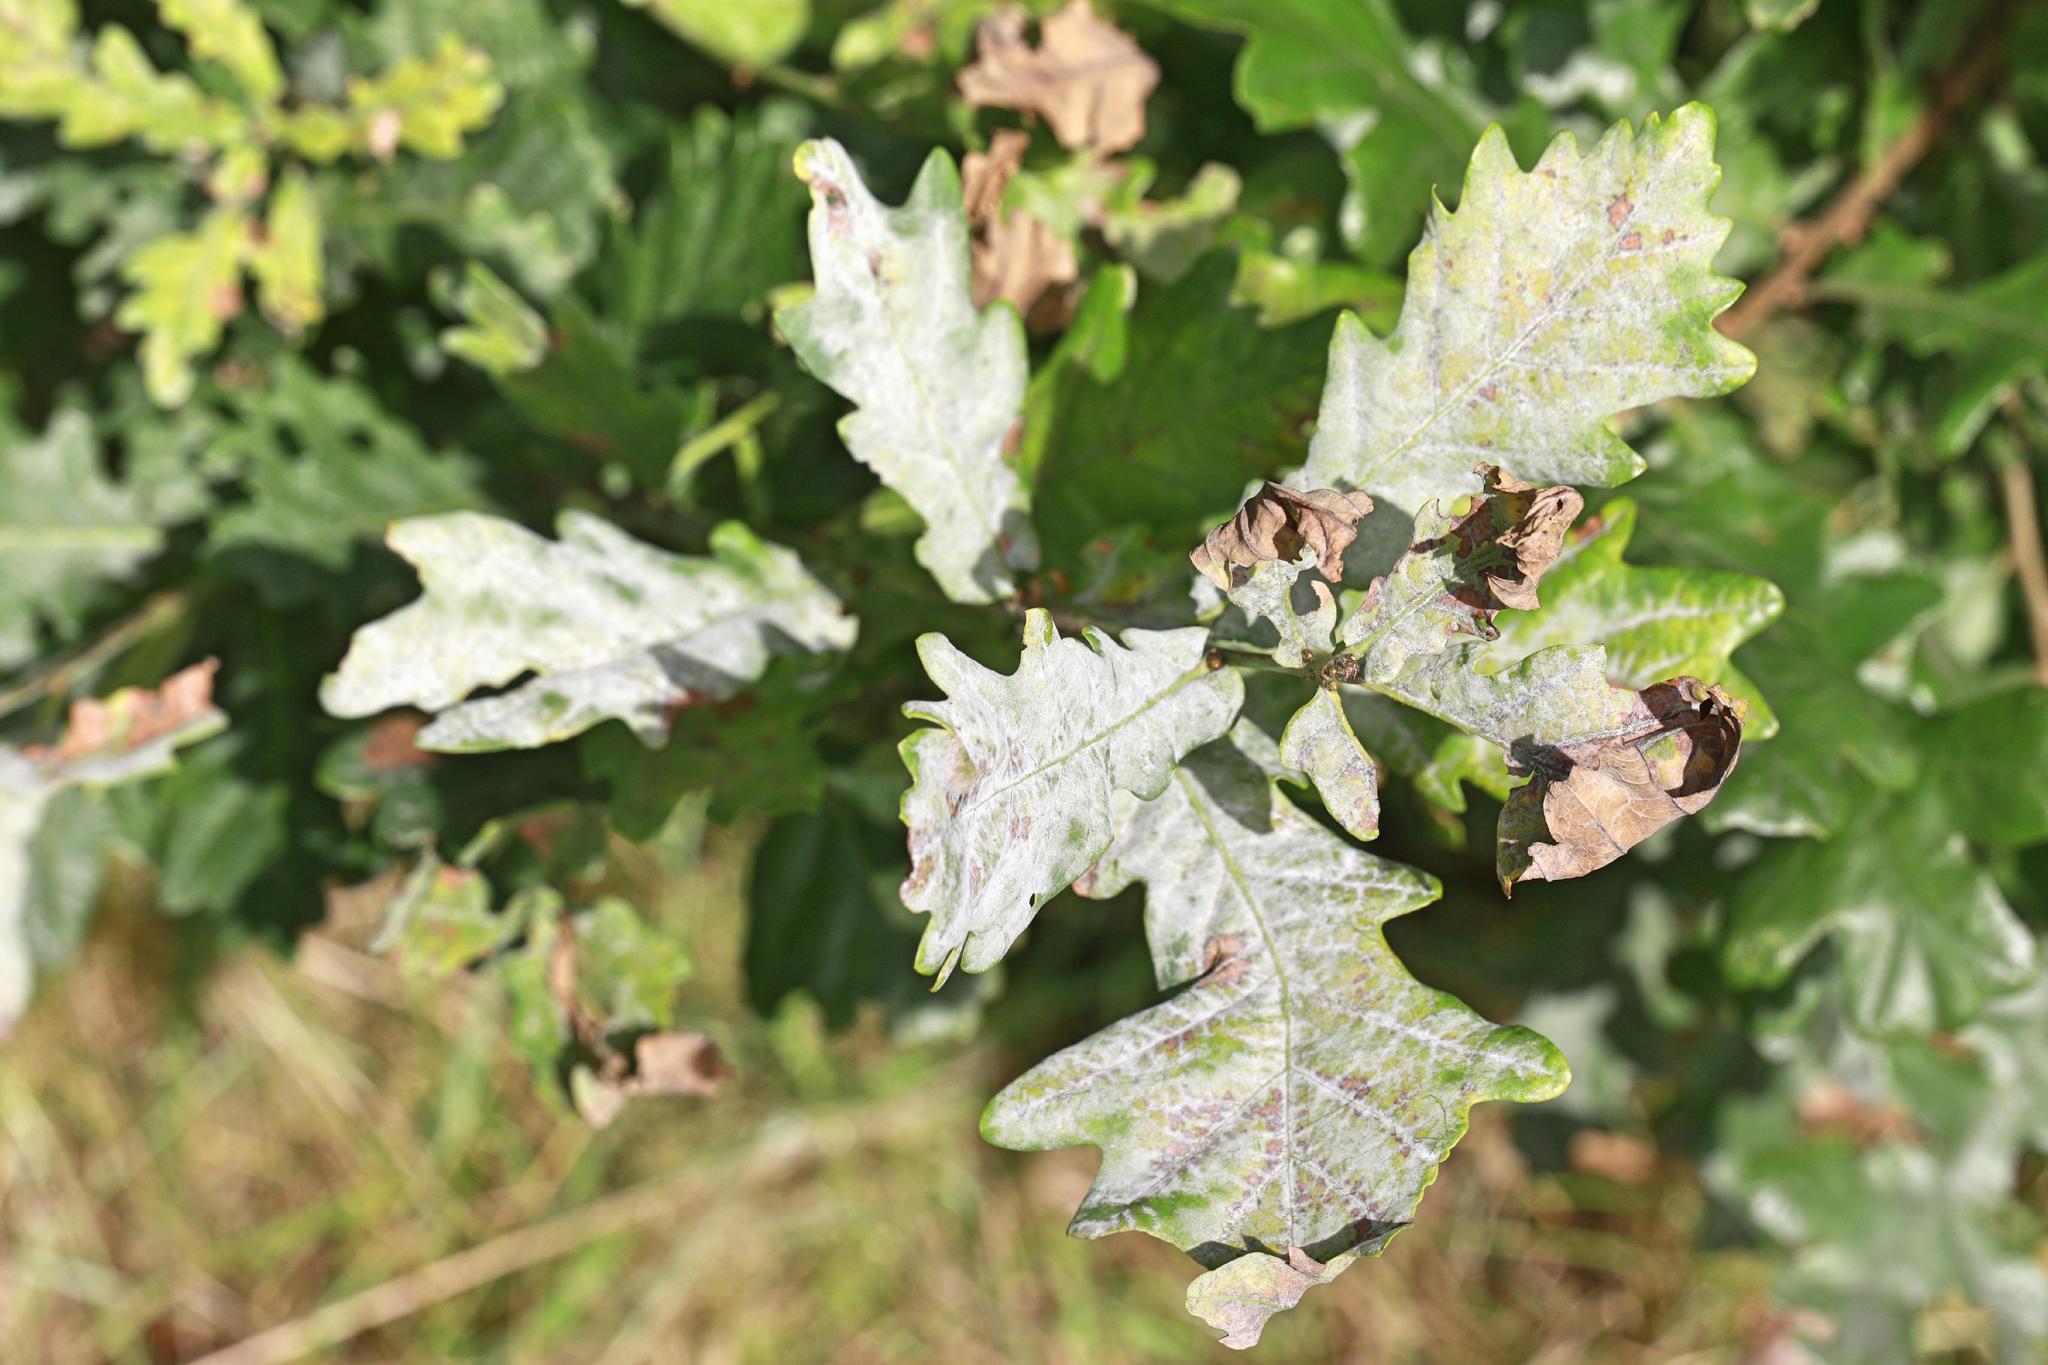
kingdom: Fungi
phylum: Ascomycota
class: Leotiomycetes
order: Helotiales
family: Erysiphaceae
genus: Erysiphe
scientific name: Erysiphe alphitoides
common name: Oak mildew
